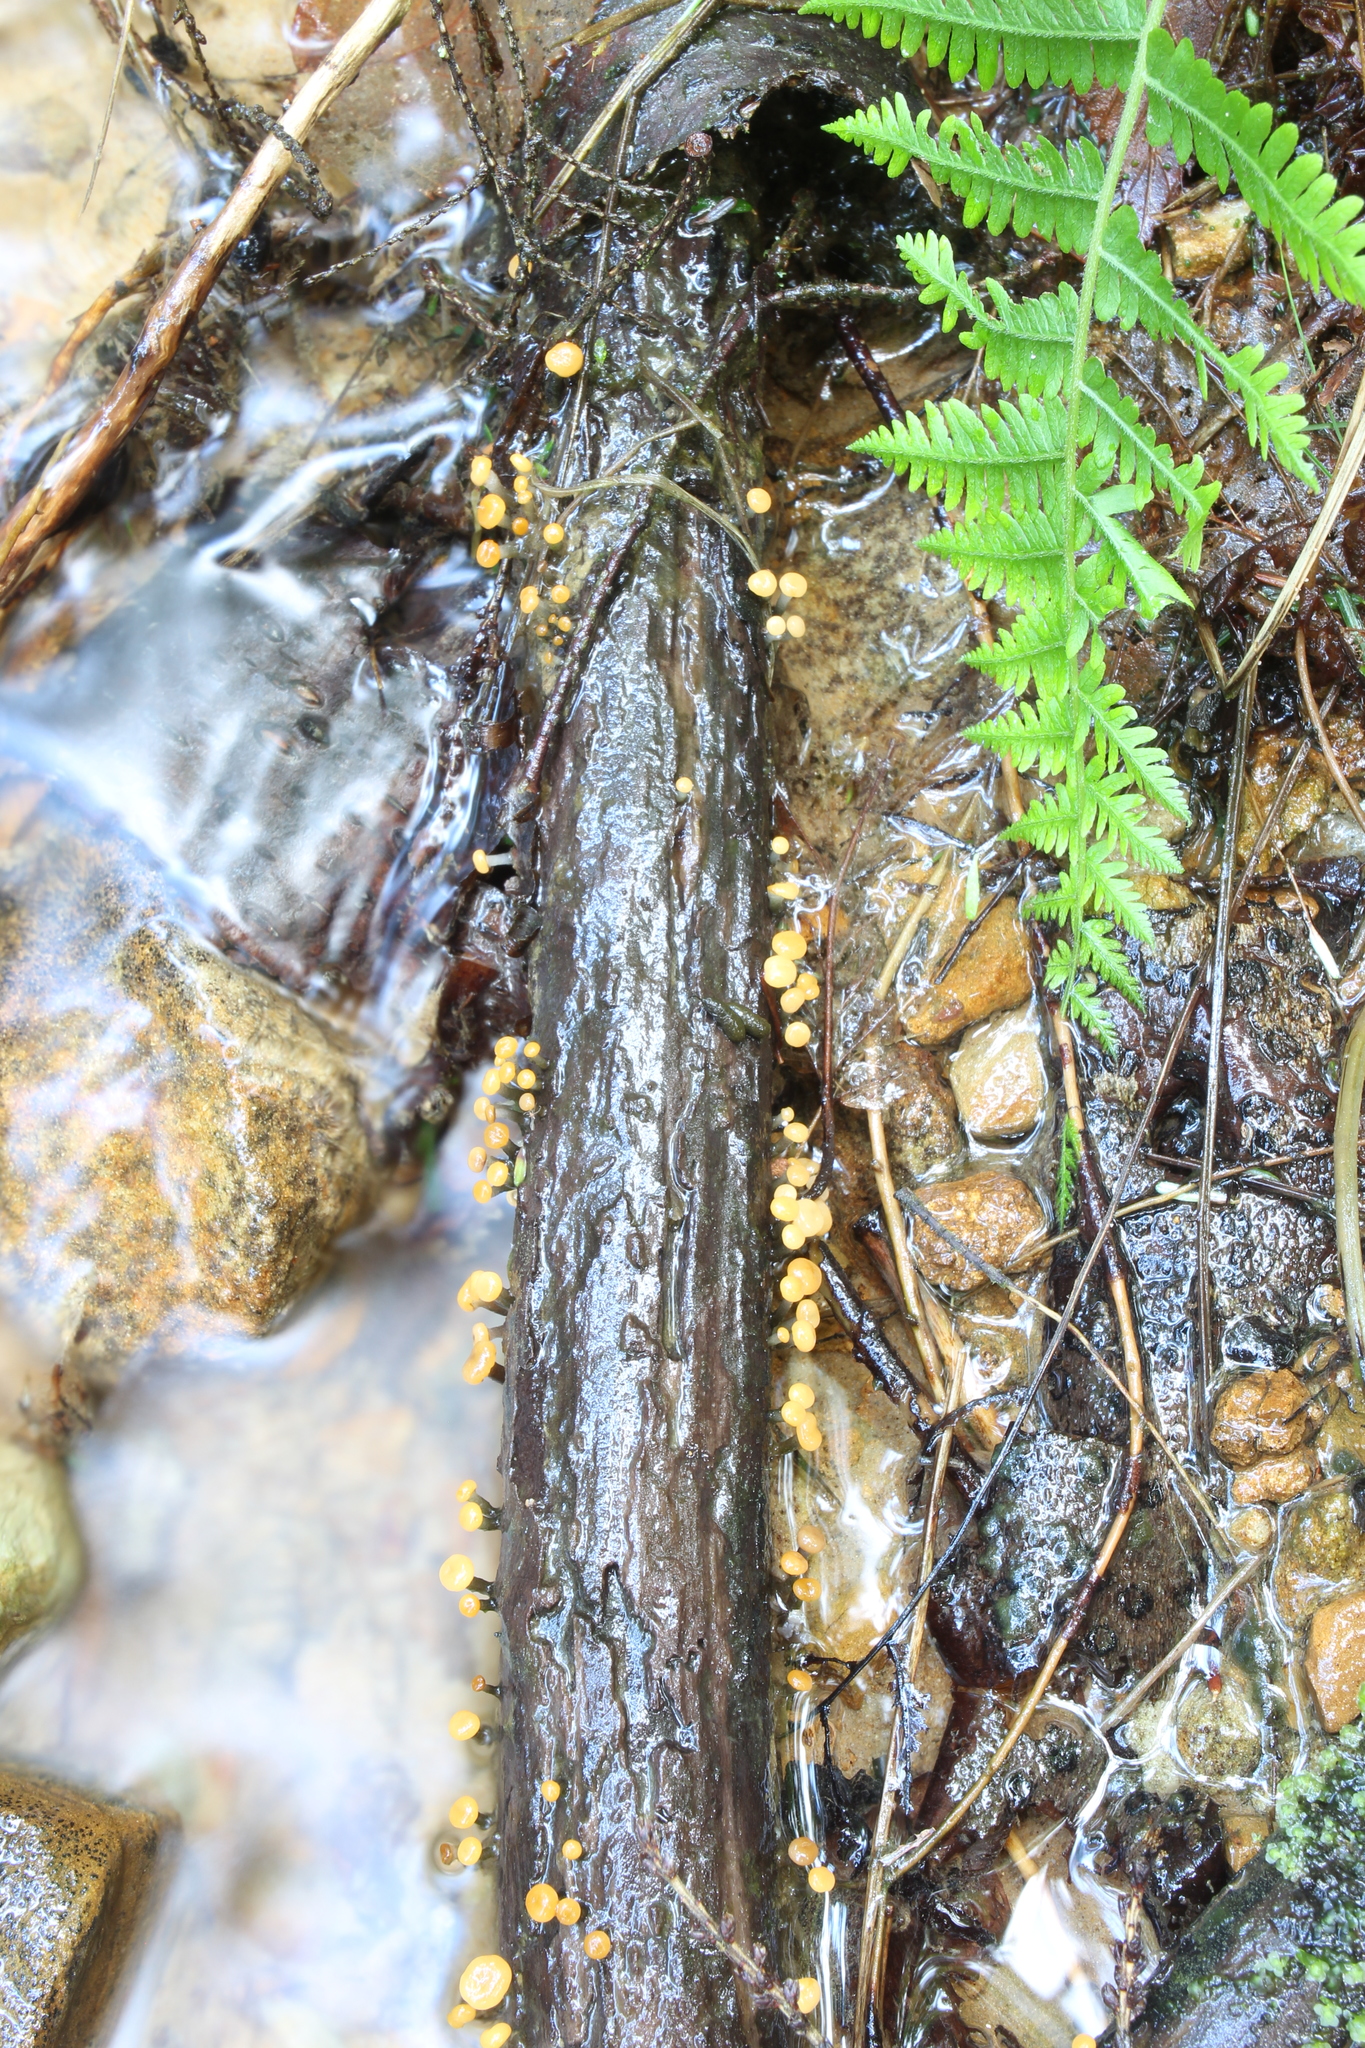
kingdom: Fungi
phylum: Ascomycota
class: Leotiomycetes
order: Helotiales
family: Vibrisseaceae
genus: Vibrissea
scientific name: Vibrissea truncorum
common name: Stream beacon
